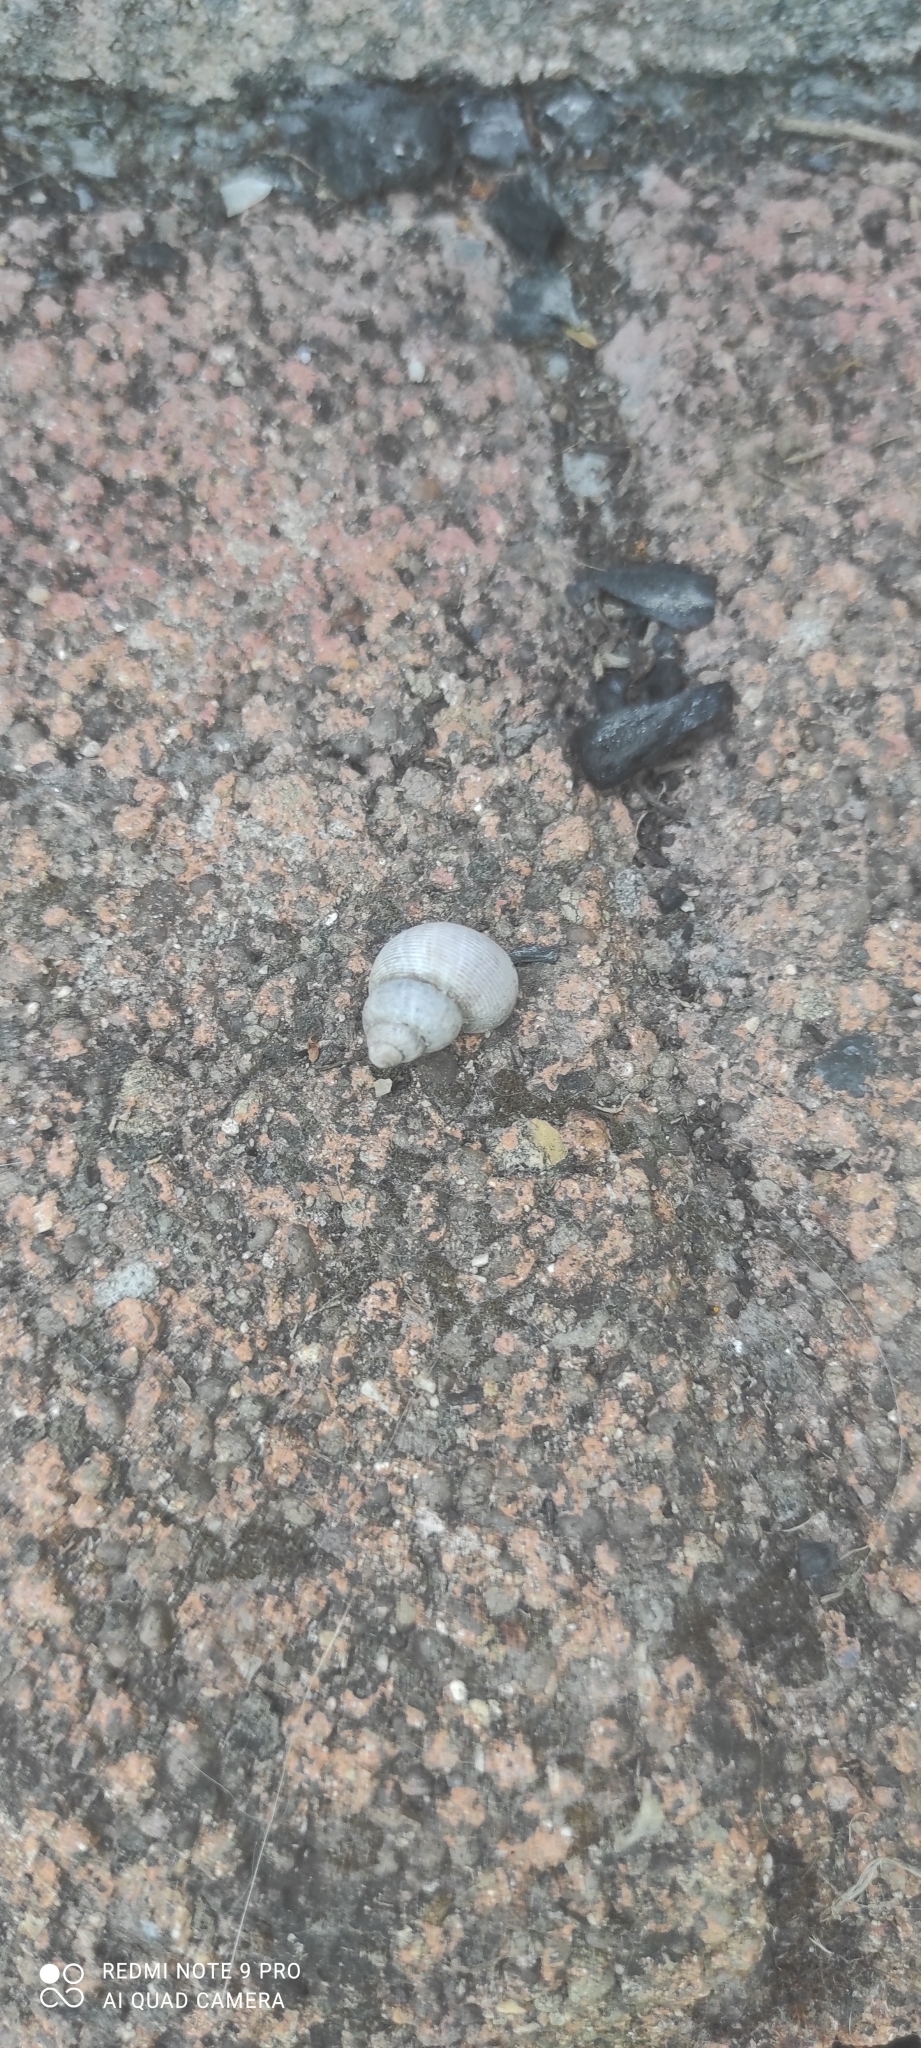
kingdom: Animalia
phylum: Mollusca
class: Gastropoda
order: Littorinimorpha
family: Pomatiidae
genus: Pomatias
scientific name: Pomatias elegans
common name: Red-mouthed snail
